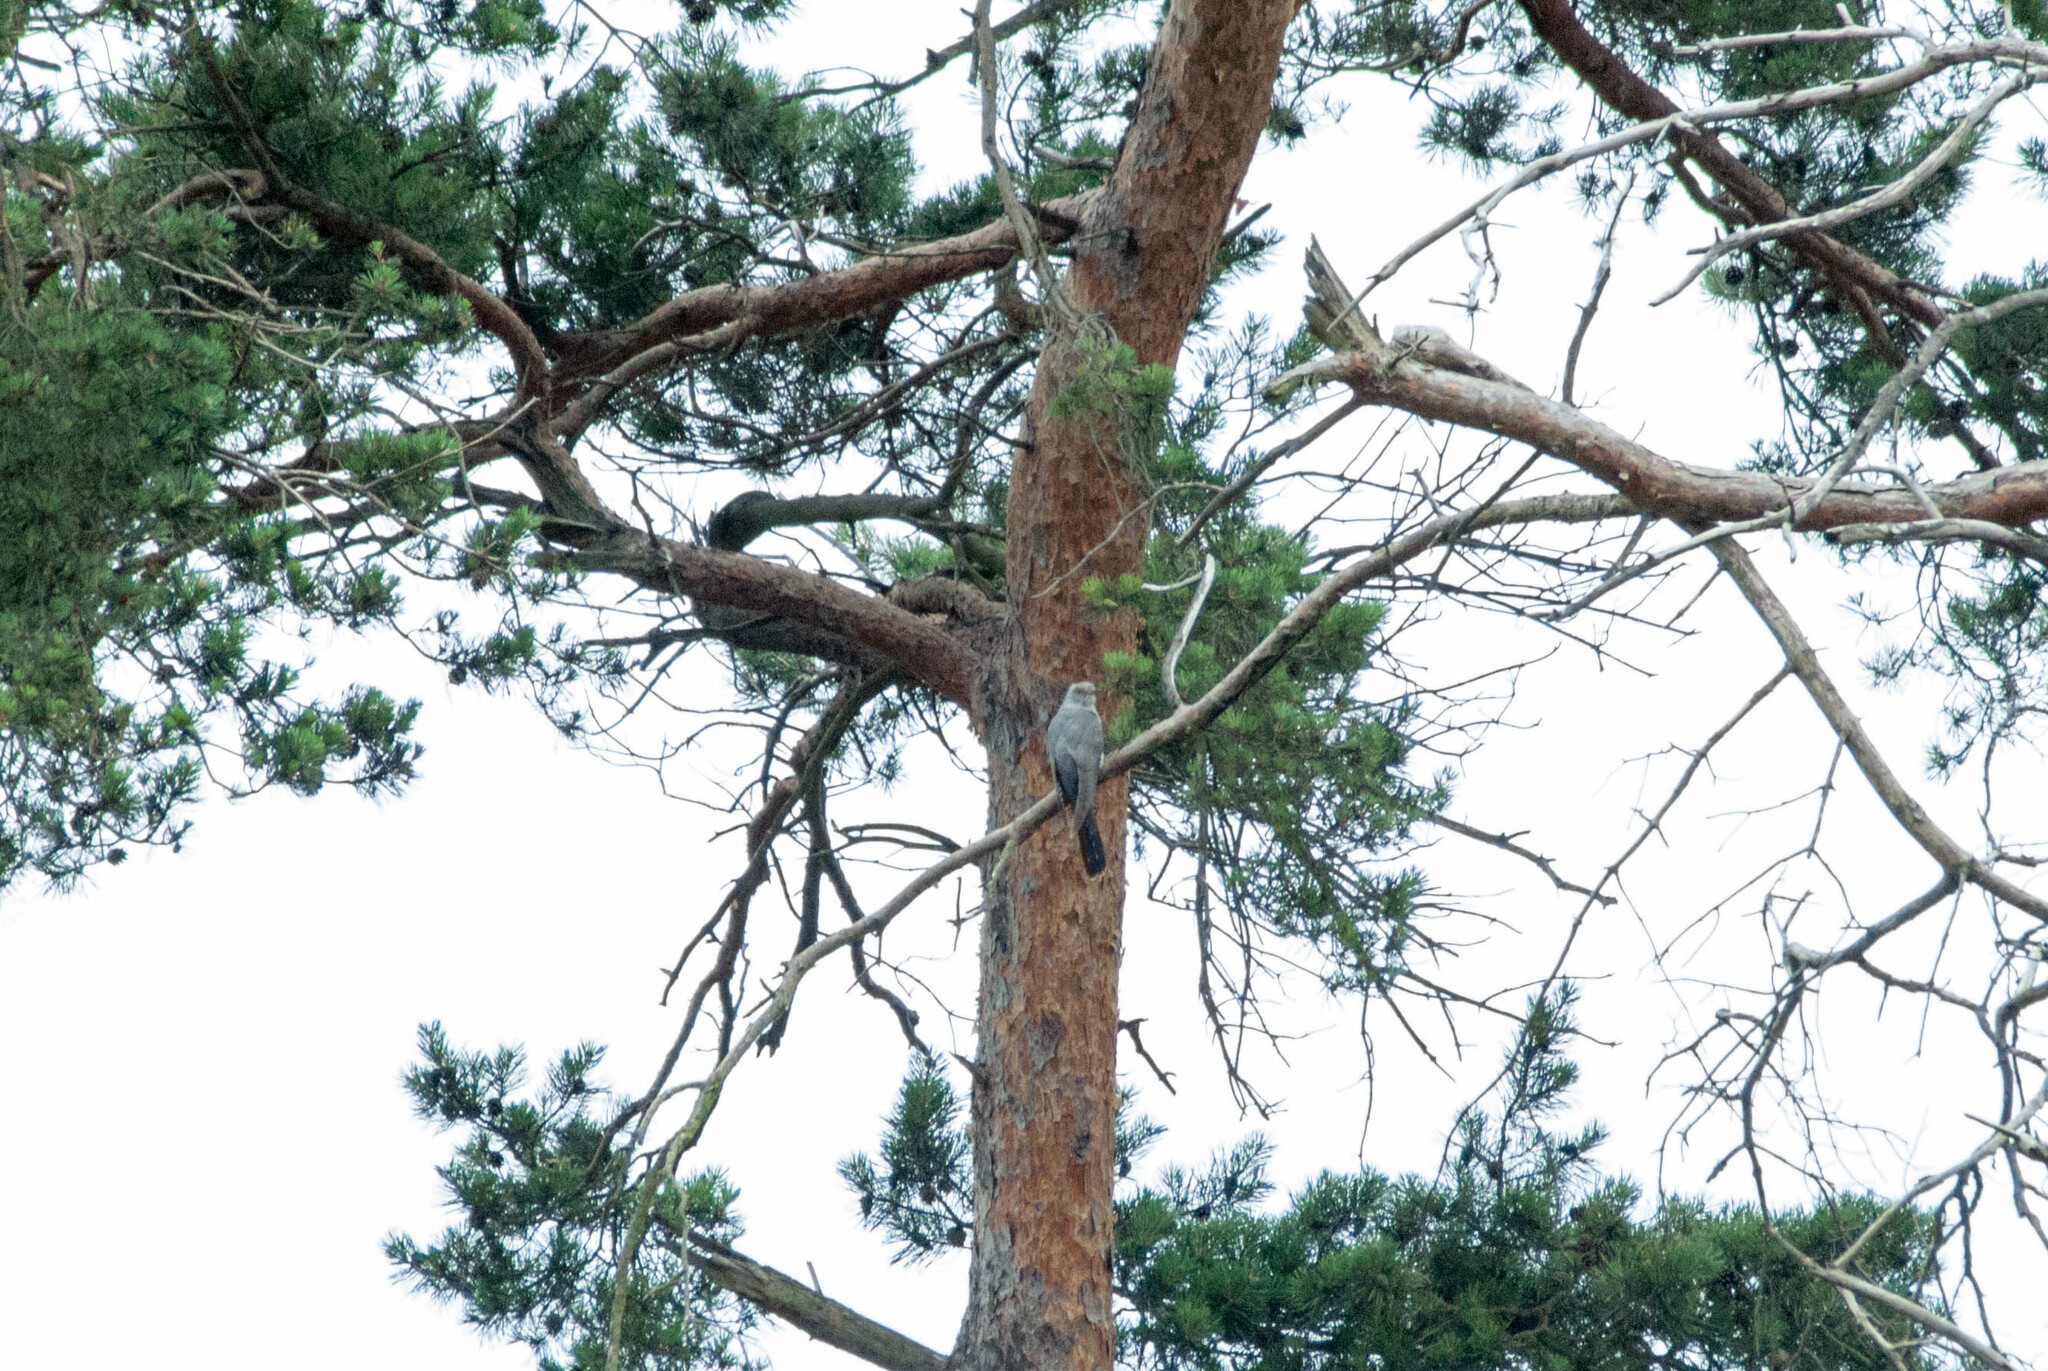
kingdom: Animalia
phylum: Chordata
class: Aves
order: Cuculiformes
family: Cuculidae
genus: Cuculus
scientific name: Cuculus canorus
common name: Common cuckoo
